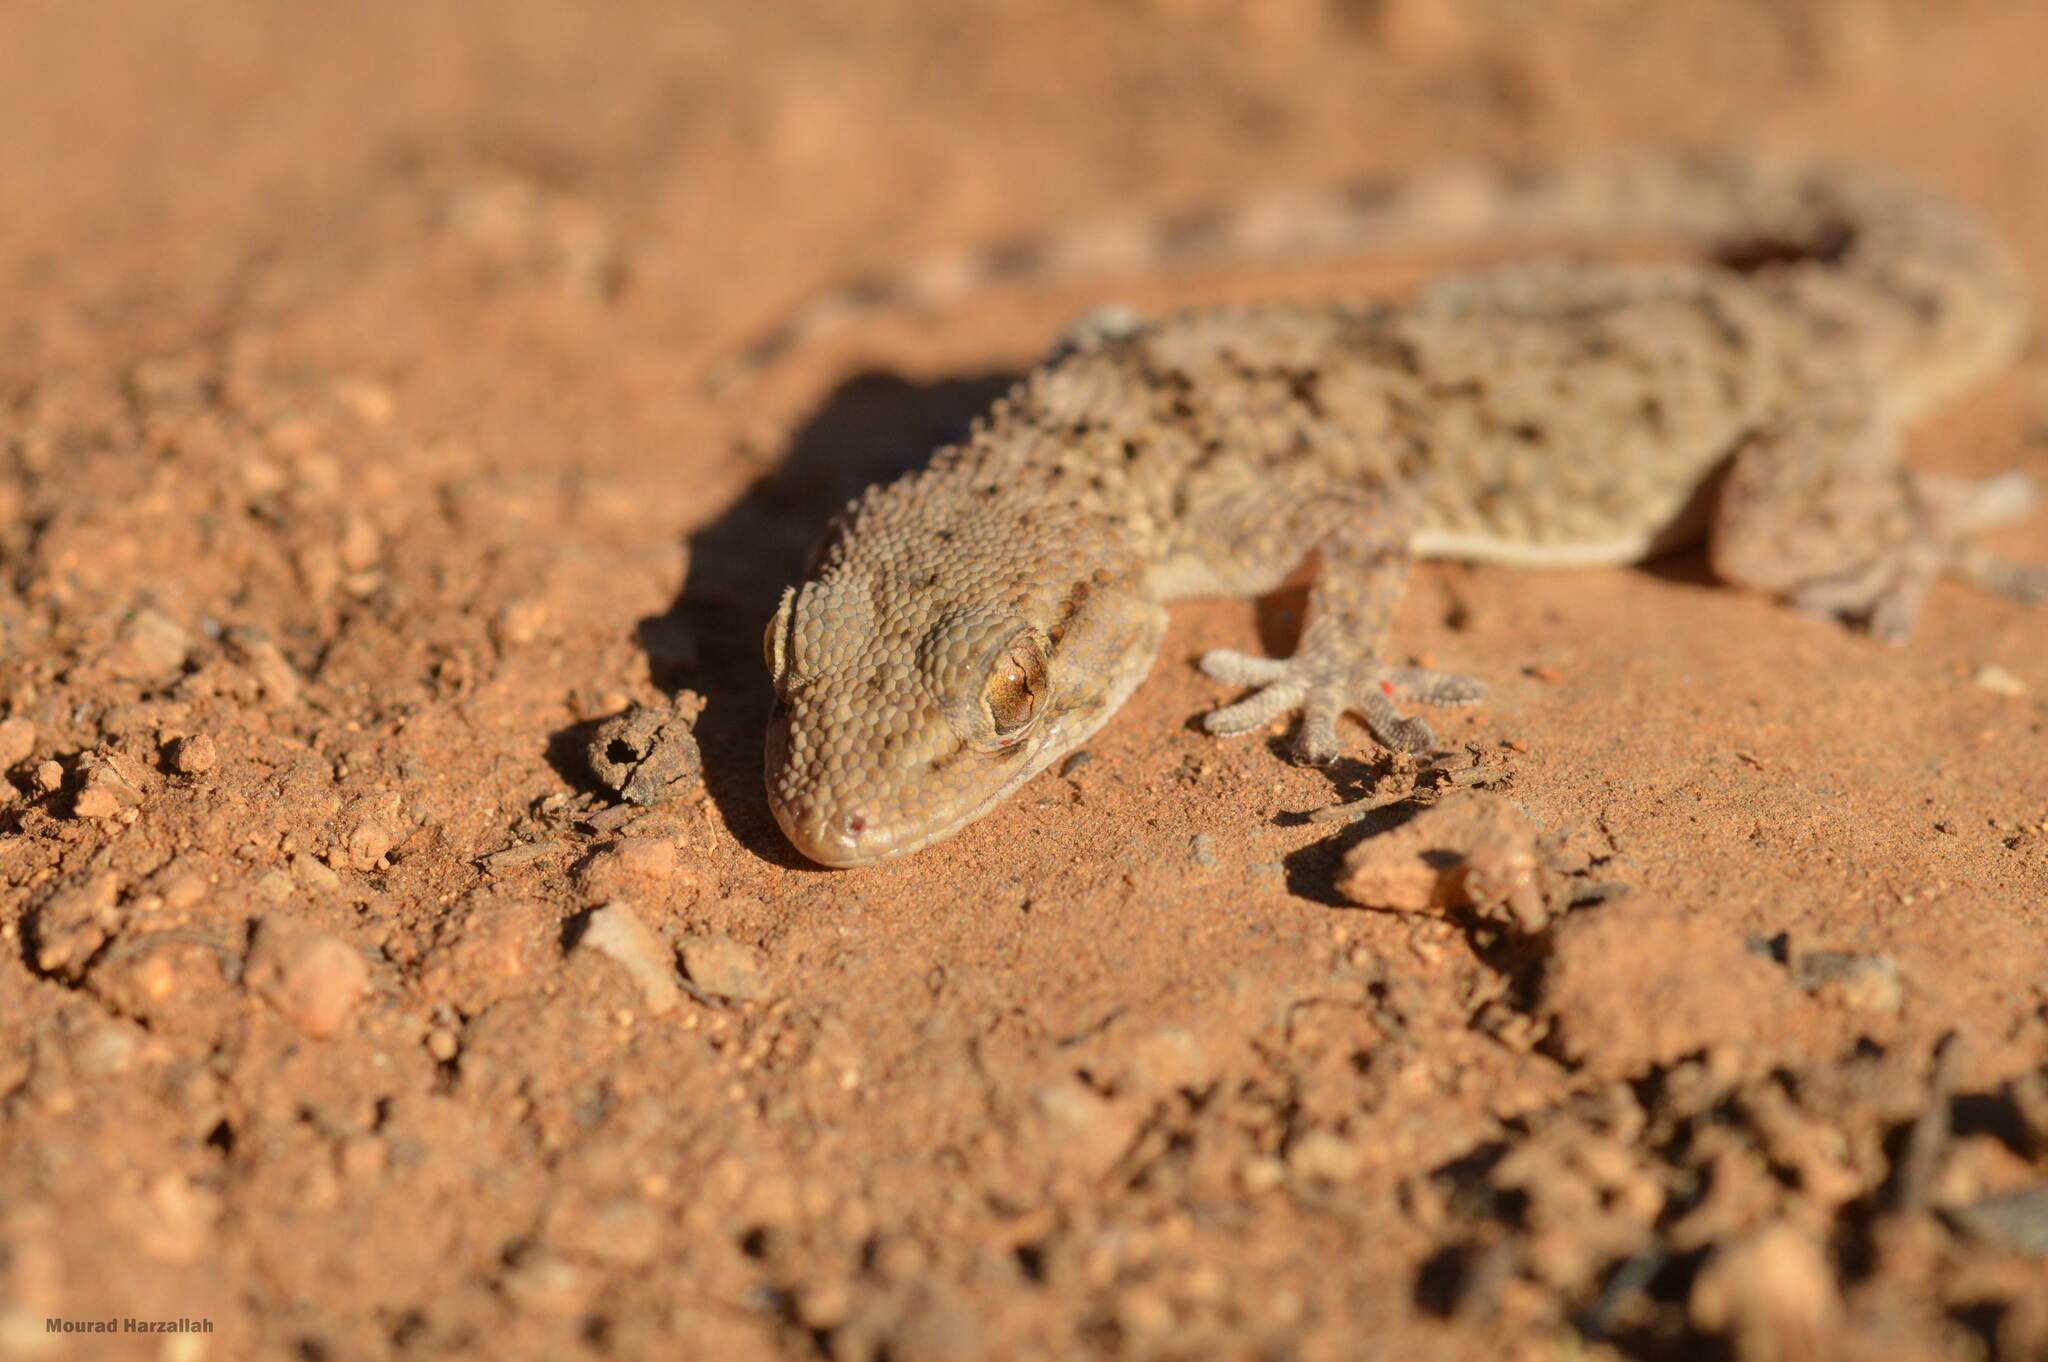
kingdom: Animalia
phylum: Chordata
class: Squamata
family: Phyllodactylidae
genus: Tarentola
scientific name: Tarentola mauritanica
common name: Moorish gecko
